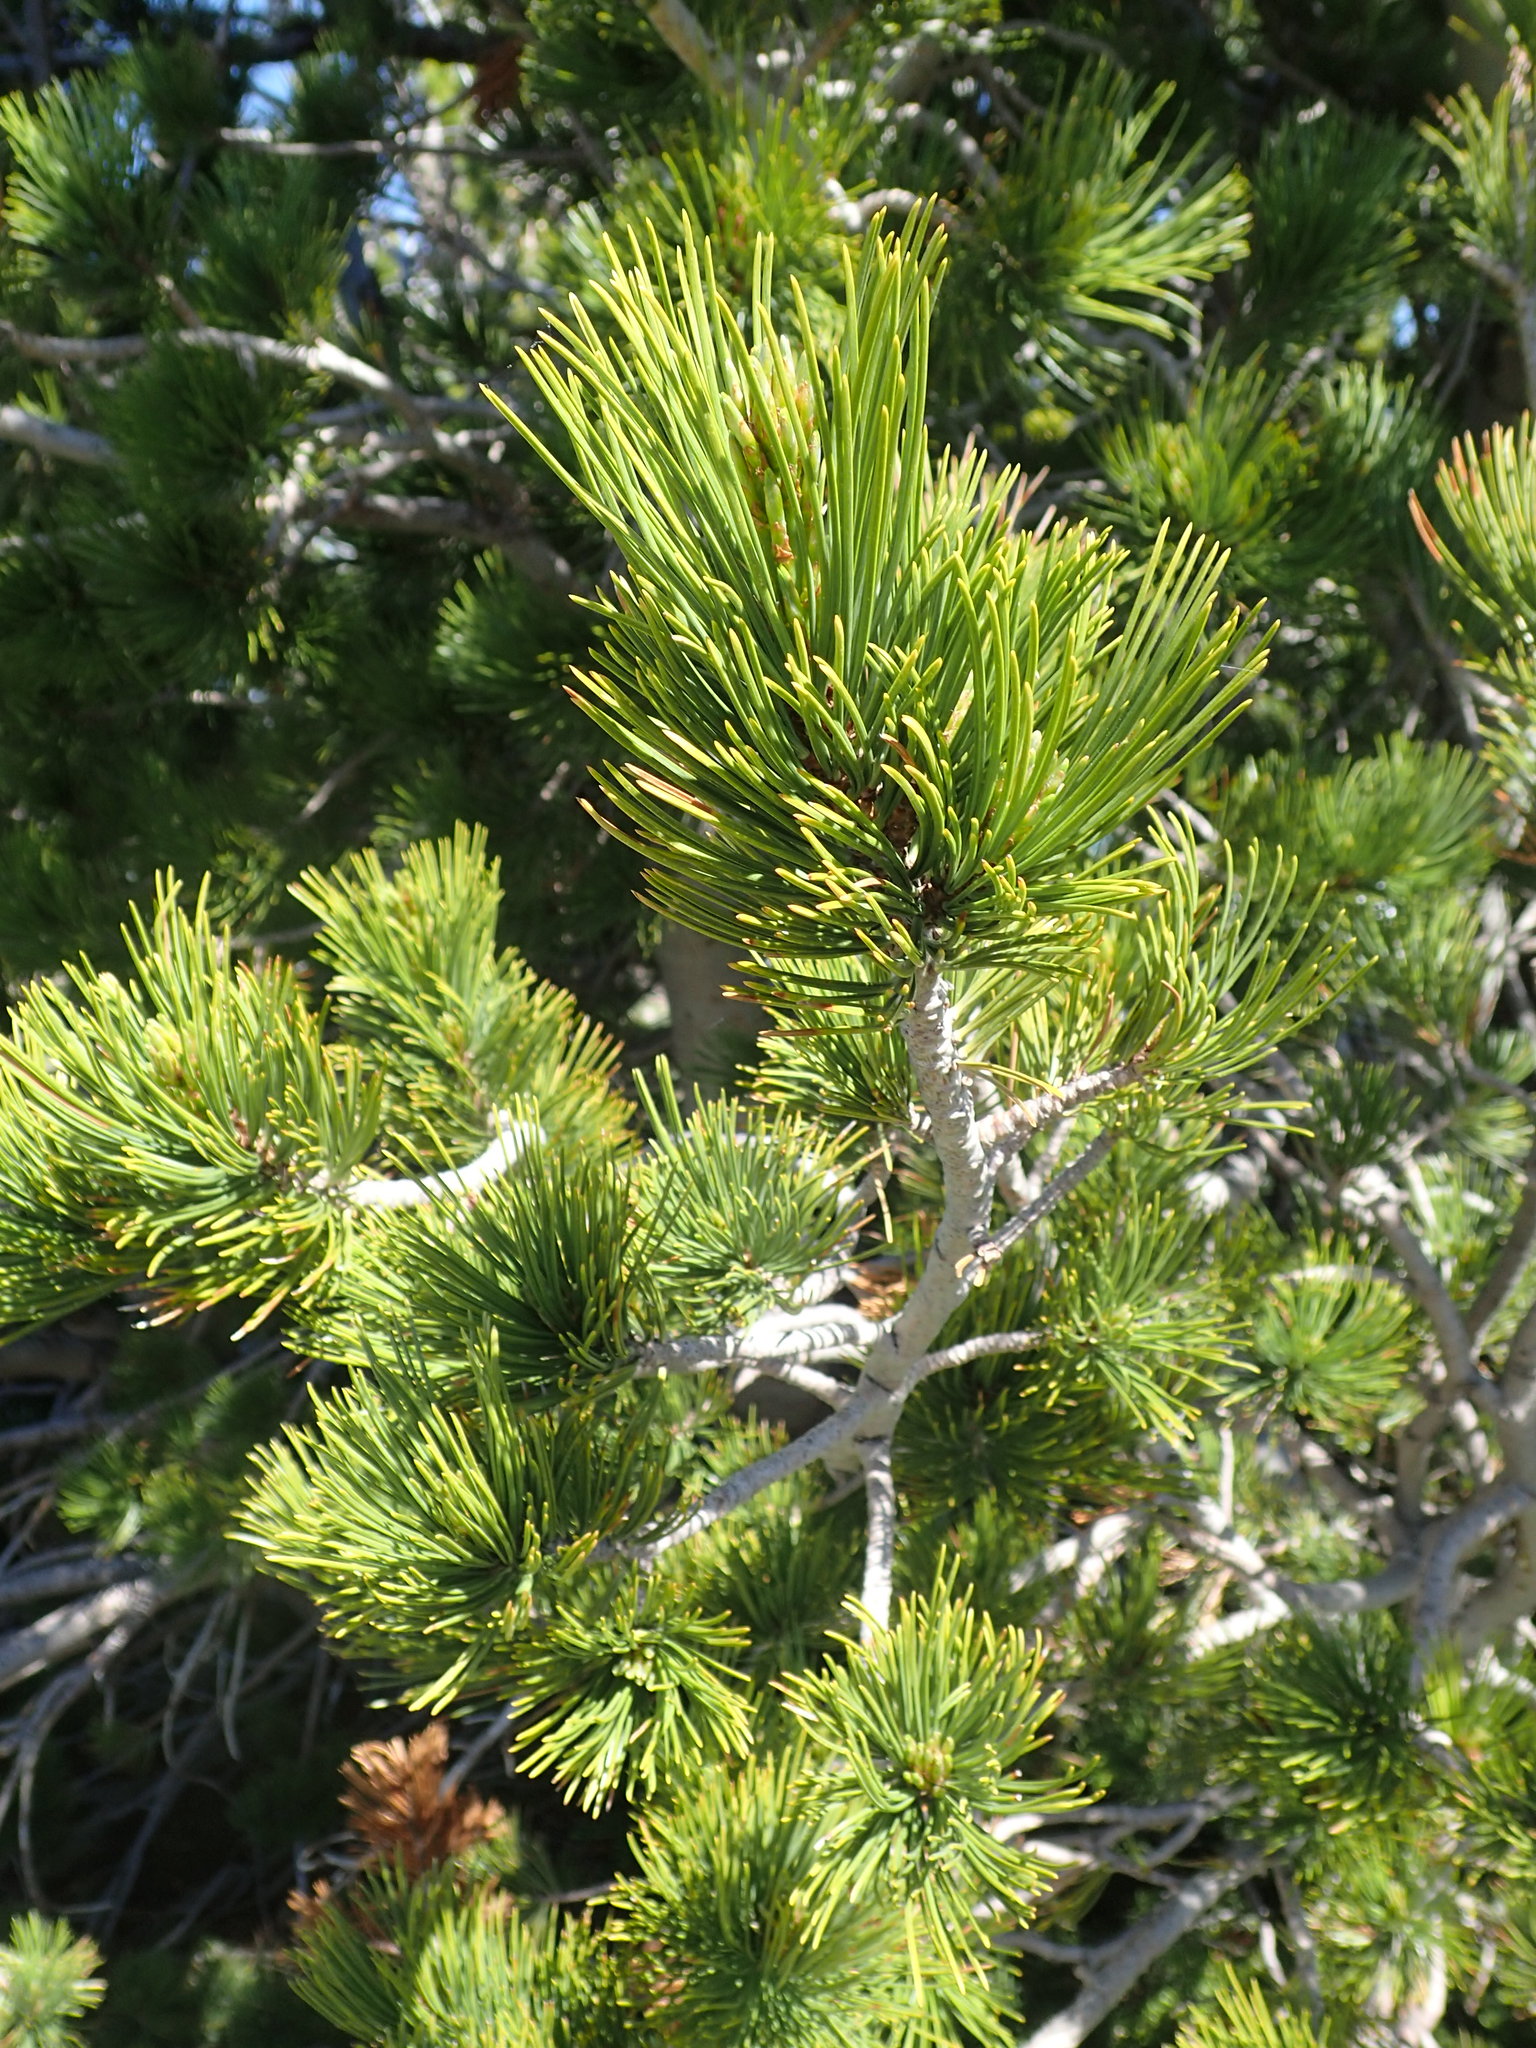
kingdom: Plantae
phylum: Tracheophyta
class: Pinopsida
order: Pinales
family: Pinaceae
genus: Pinus
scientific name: Pinus albicaulis
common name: Whitebark pine
